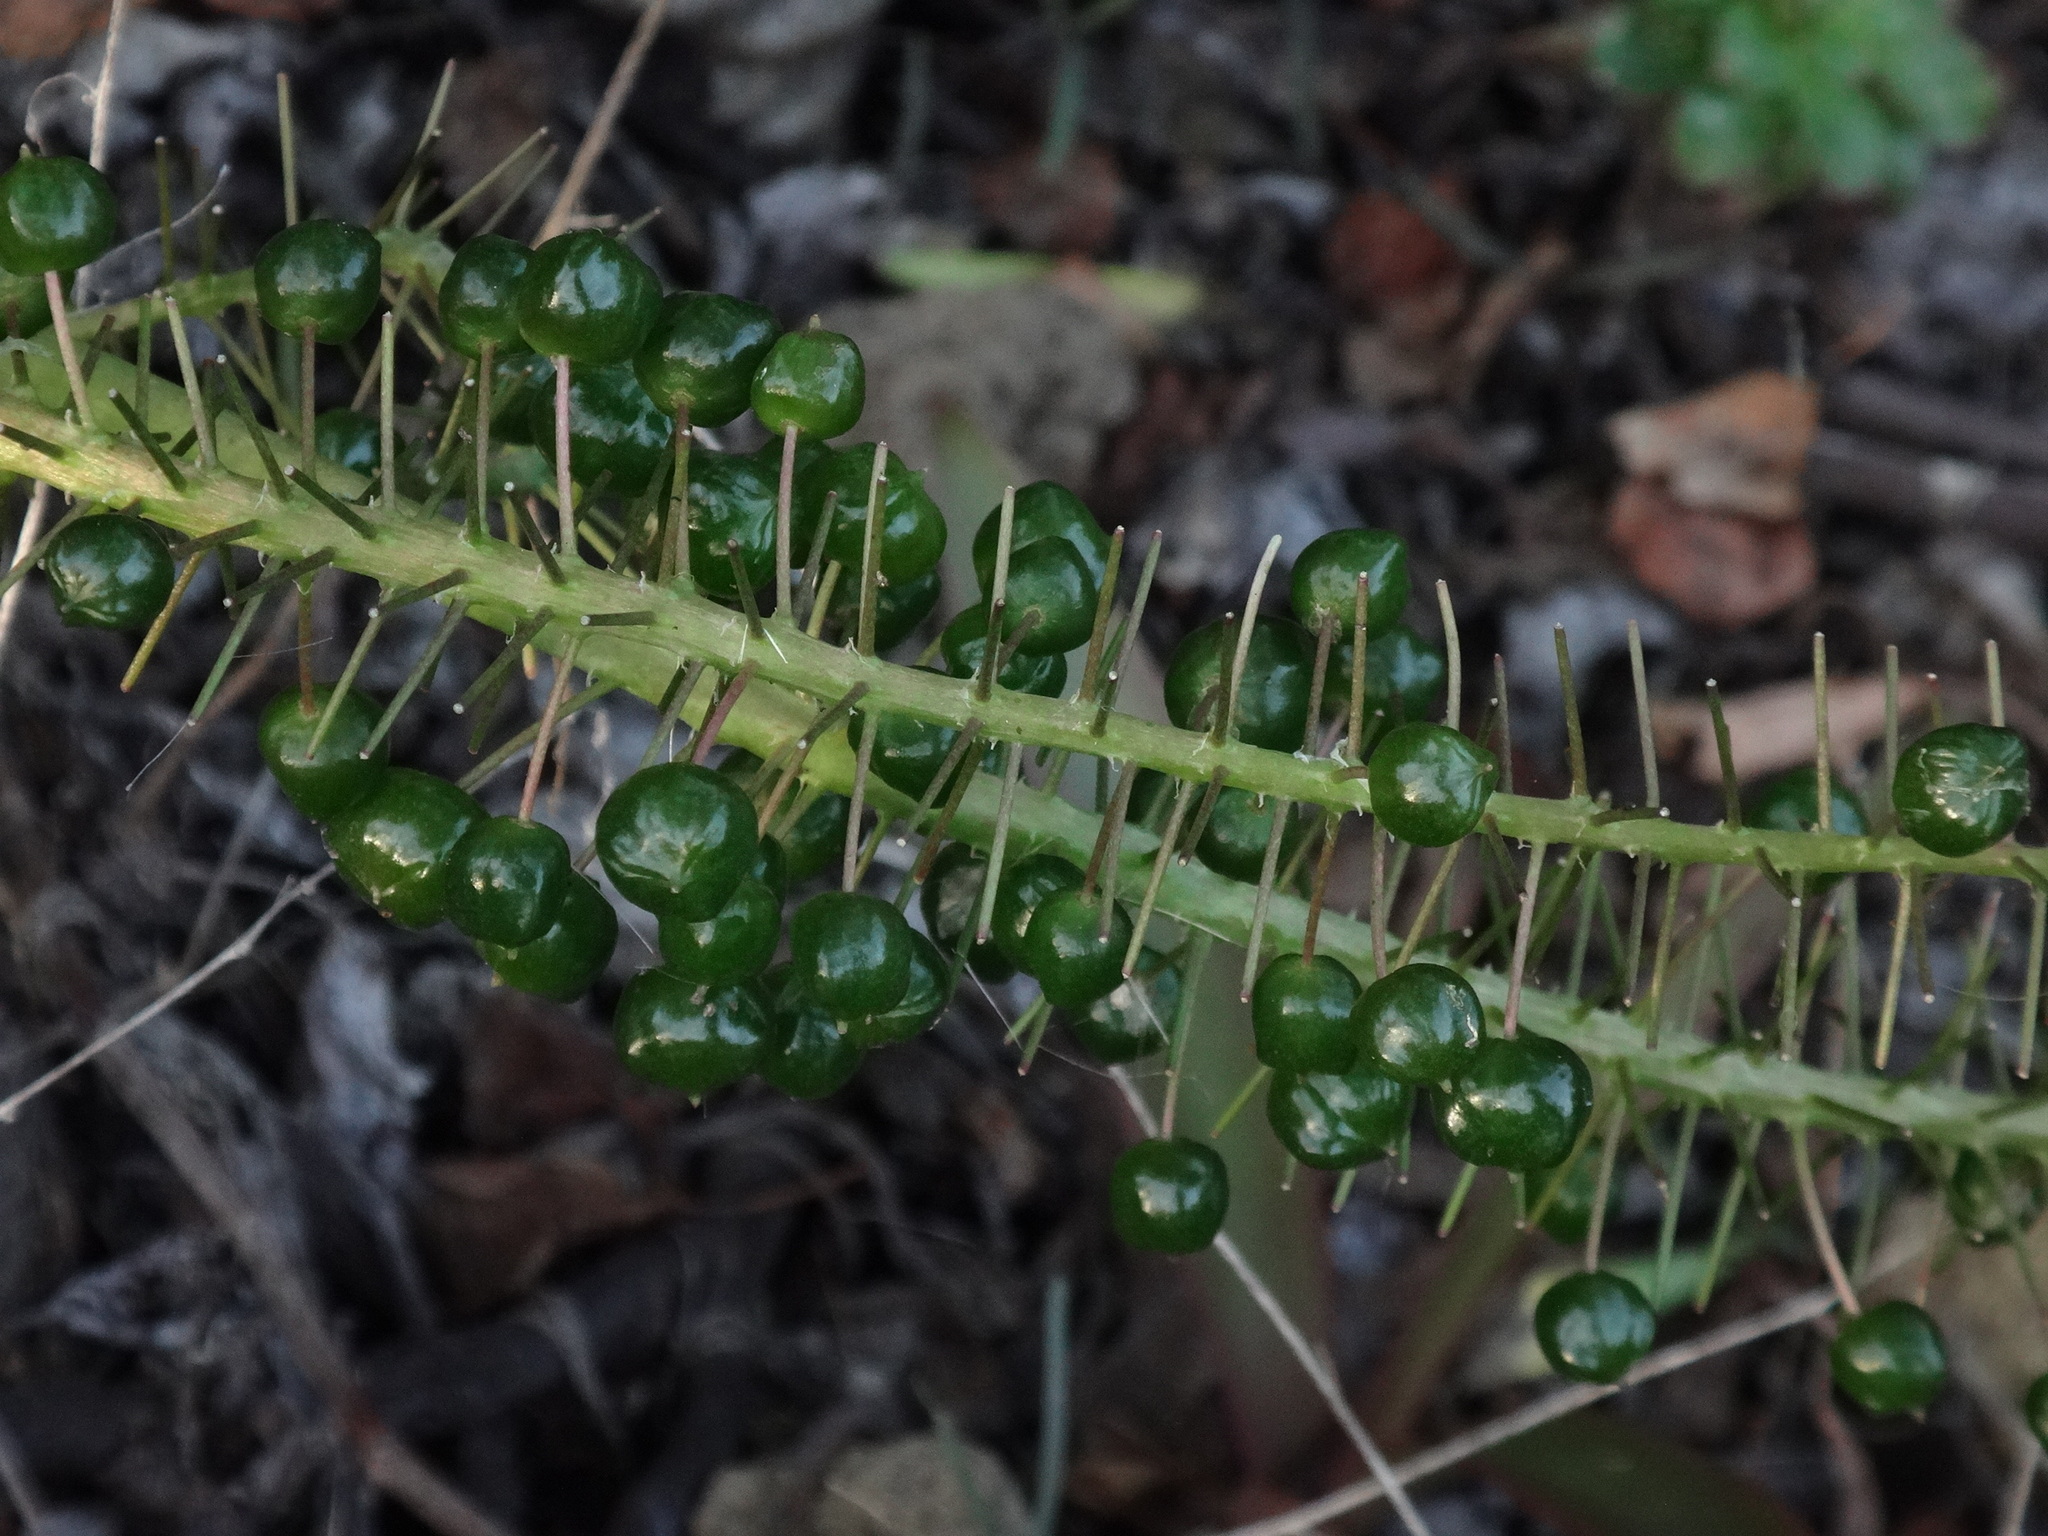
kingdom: Plantae
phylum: Tracheophyta
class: Liliopsida
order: Asparagales
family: Asparagaceae
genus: Scilla
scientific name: Scilla latifolia
